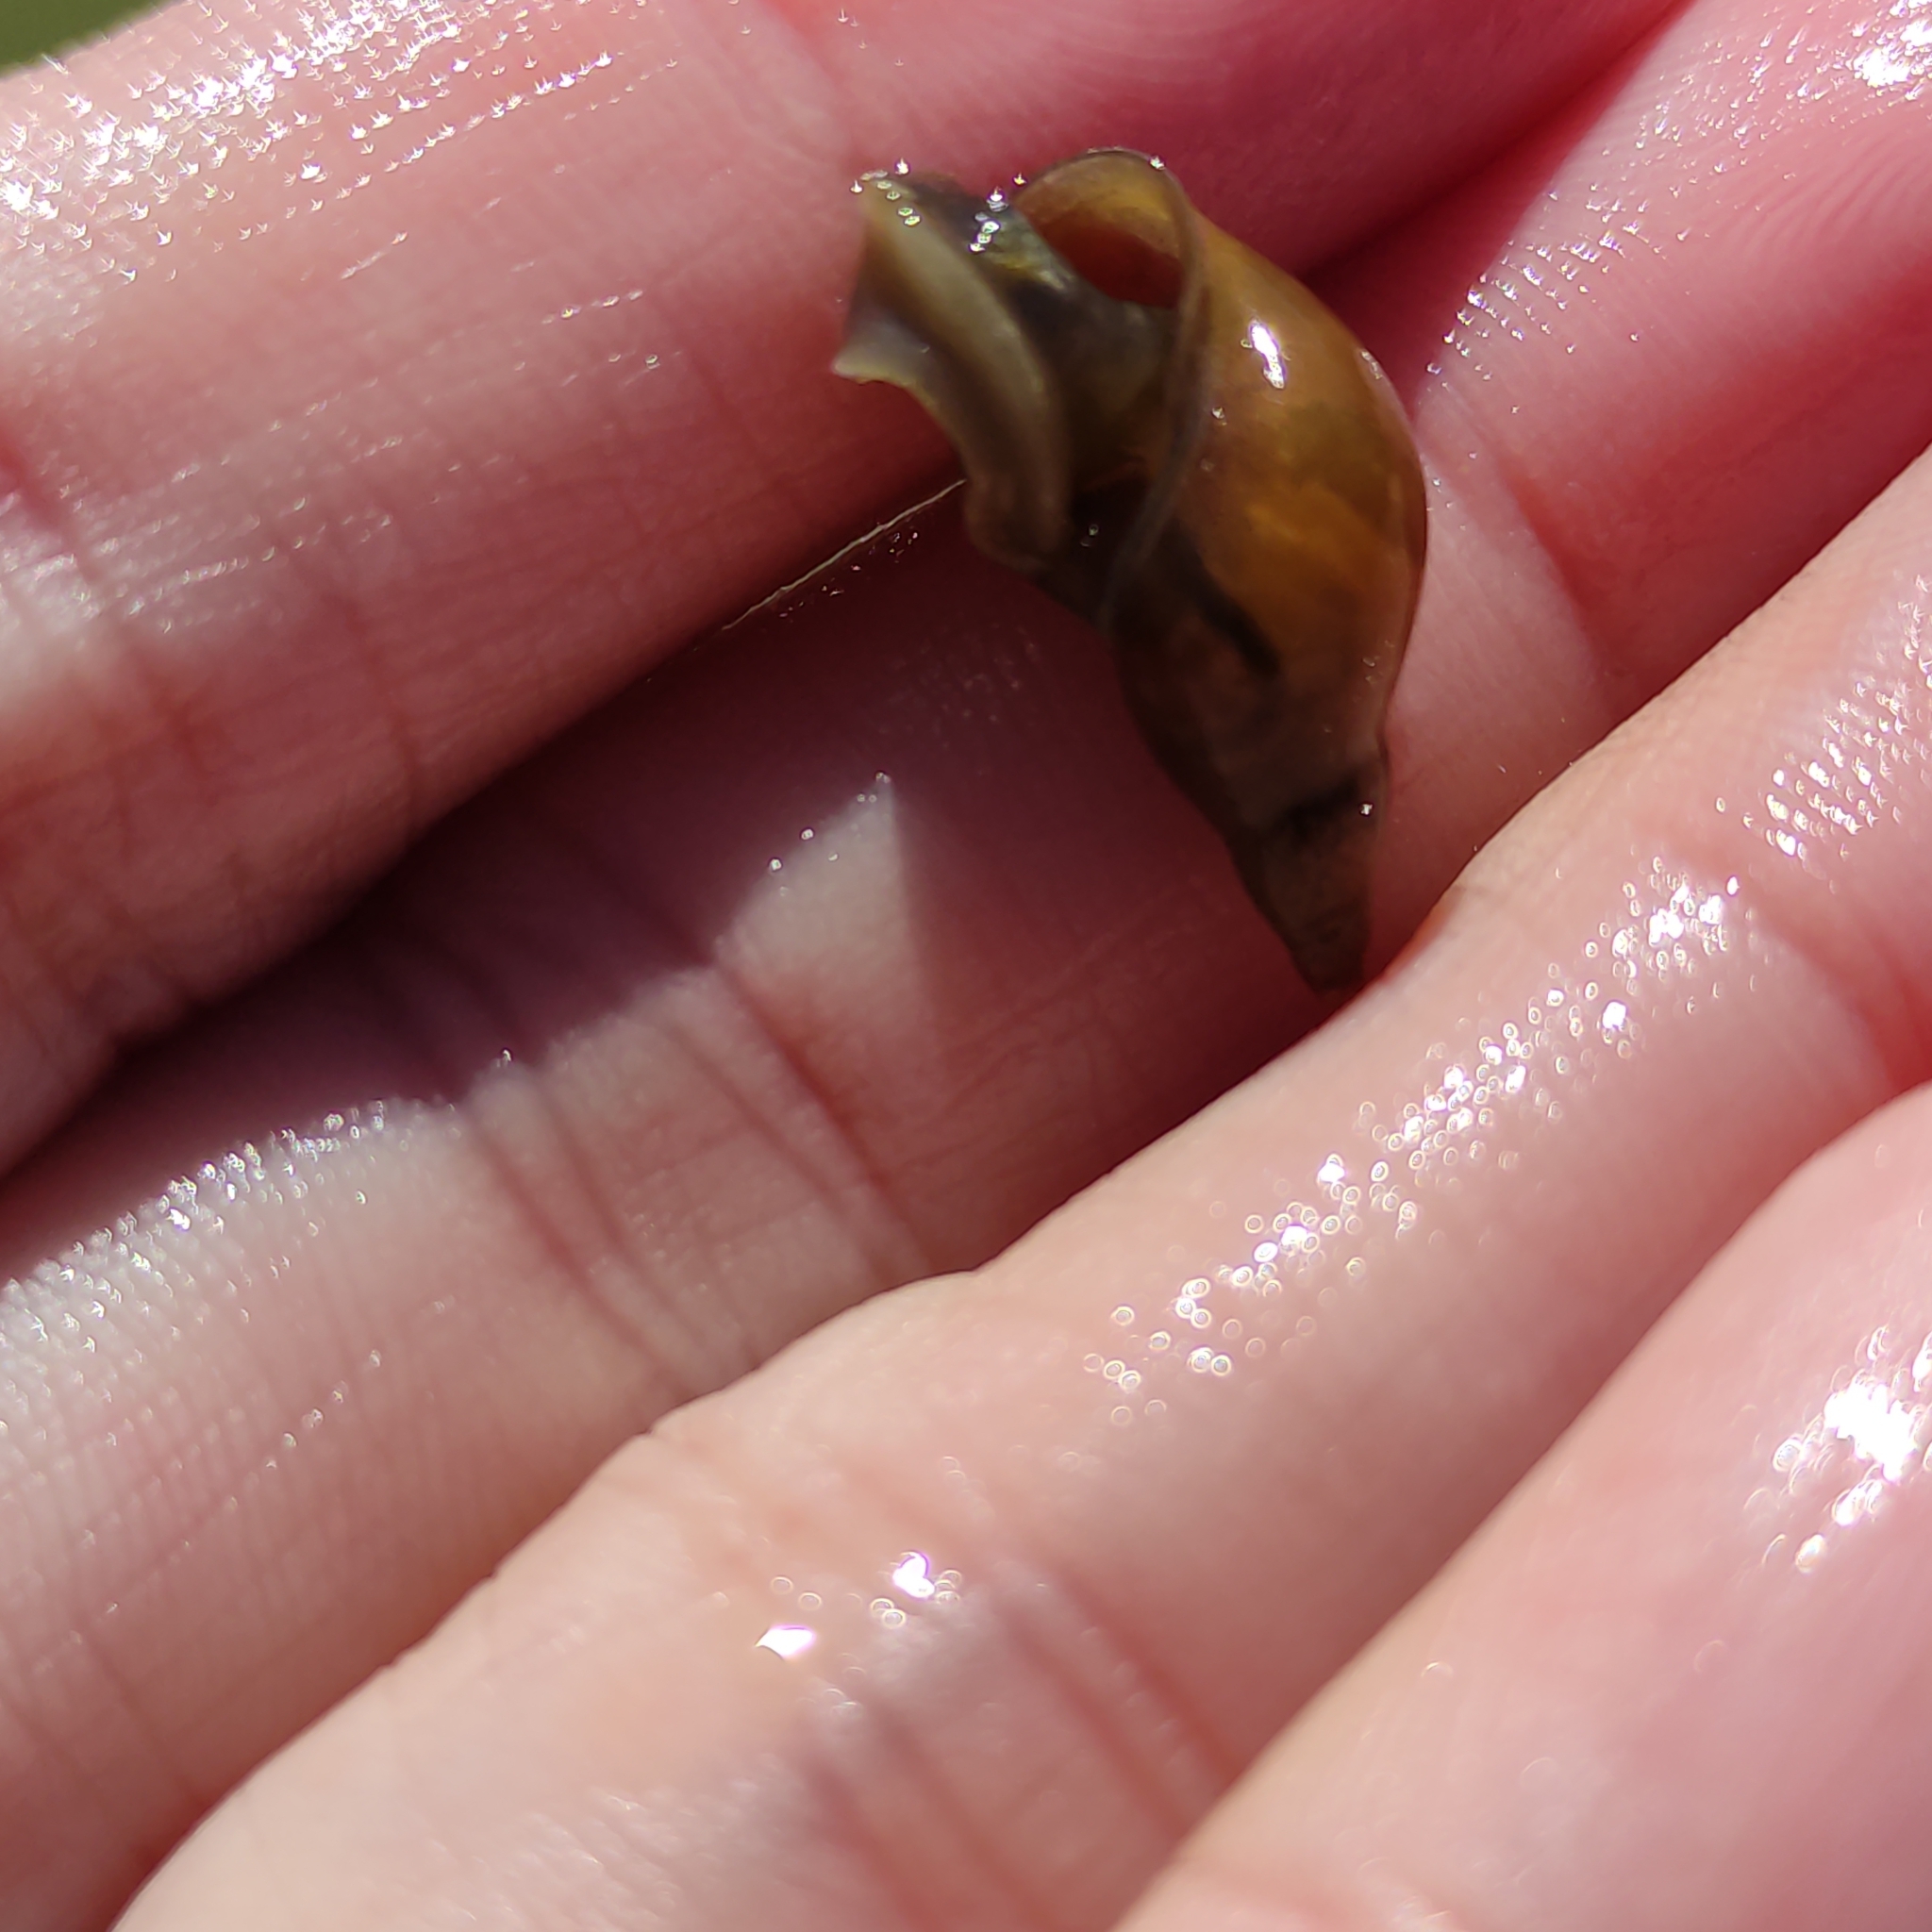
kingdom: Animalia
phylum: Mollusca
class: Gastropoda
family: Lymnaeidae
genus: Lymnaea
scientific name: Lymnaea stagnalis
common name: Great pond snail
